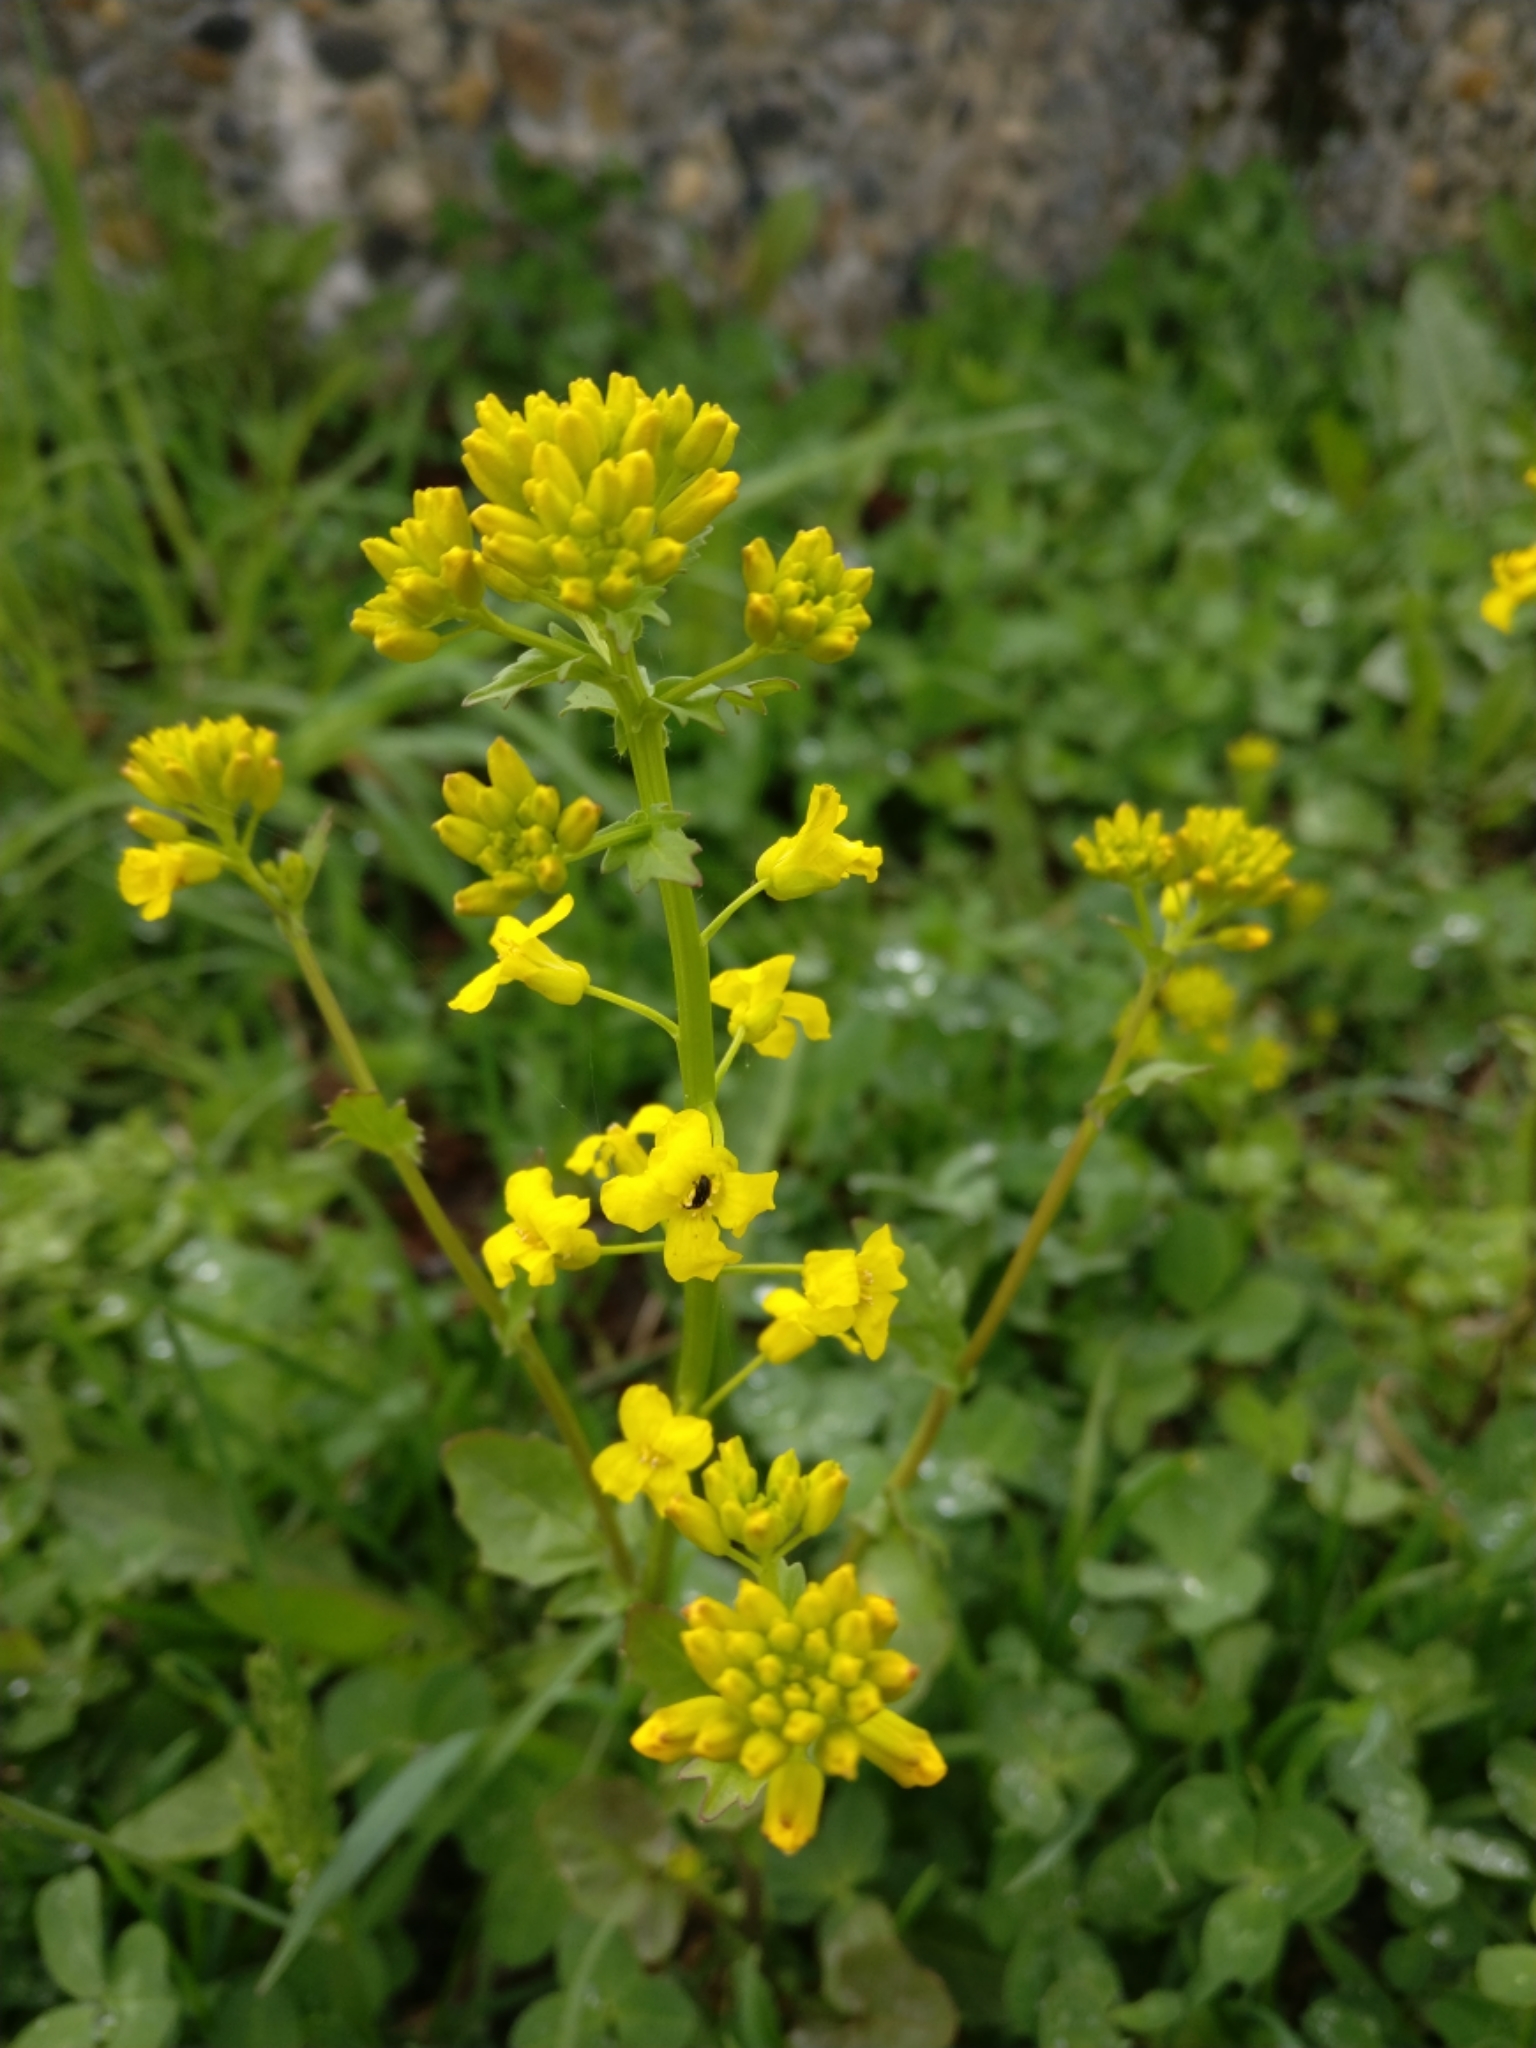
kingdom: Plantae
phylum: Tracheophyta
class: Magnoliopsida
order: Brassicales
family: Brassicaceae
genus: Barbarea
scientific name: Barbarea vulgaris
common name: Cressy-greens
